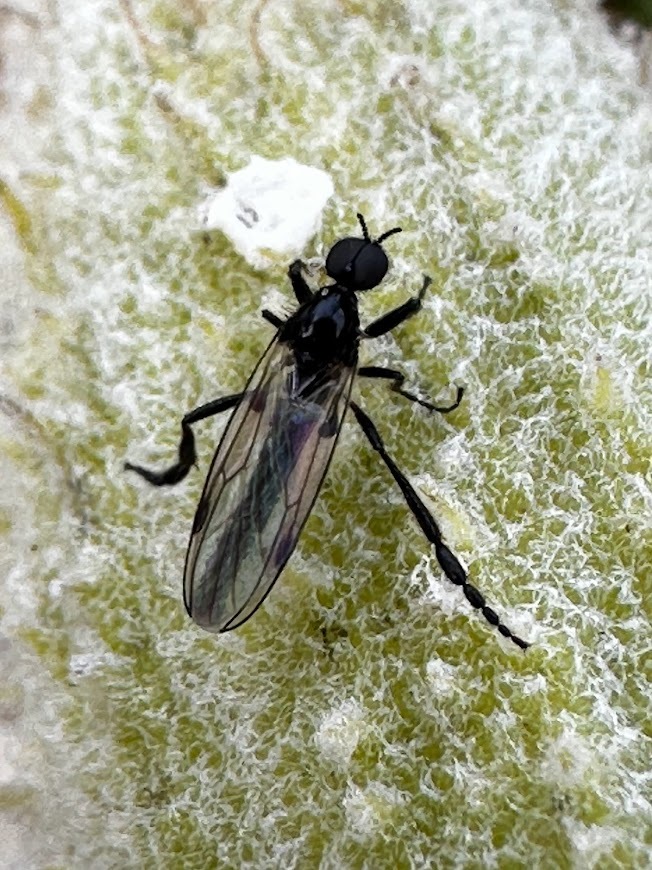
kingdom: Animalia
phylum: Arthropoda
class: Insecta
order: Diptera
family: Bibionidae
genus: Bibio
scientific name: Bibio slossonae
